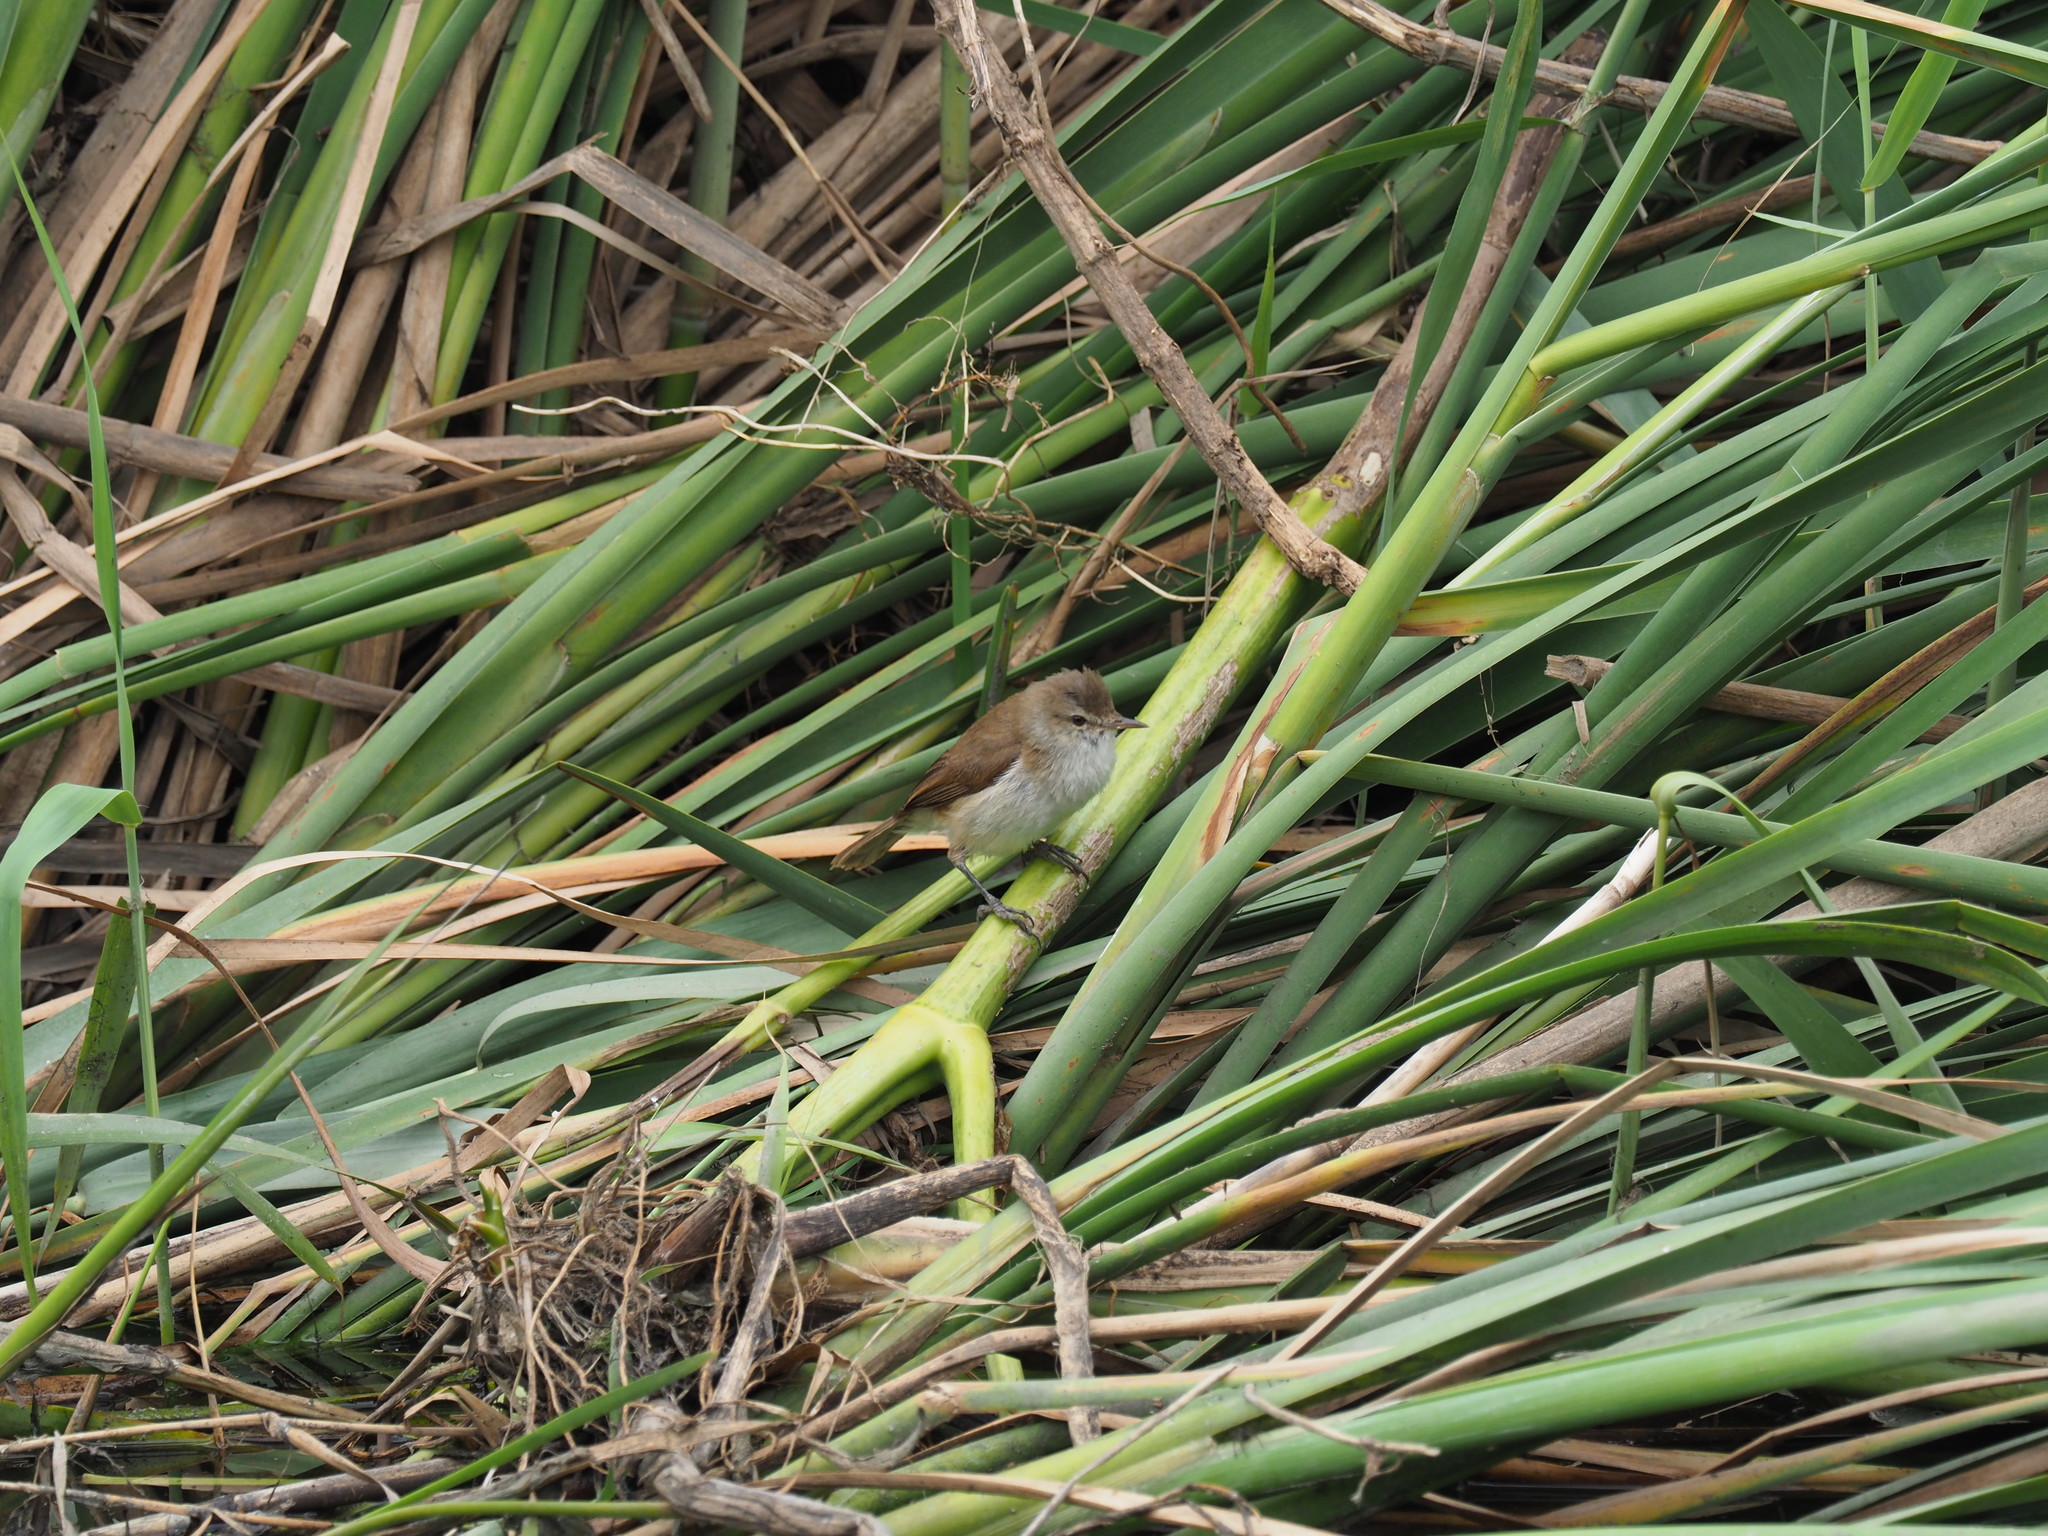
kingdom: Animalia
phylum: Chordata
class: Aves
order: Passeriformes
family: Acrocephalidae
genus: Acrocephalus
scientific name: Acrocephalus scirpaceus
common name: Eurasian reed warbler
